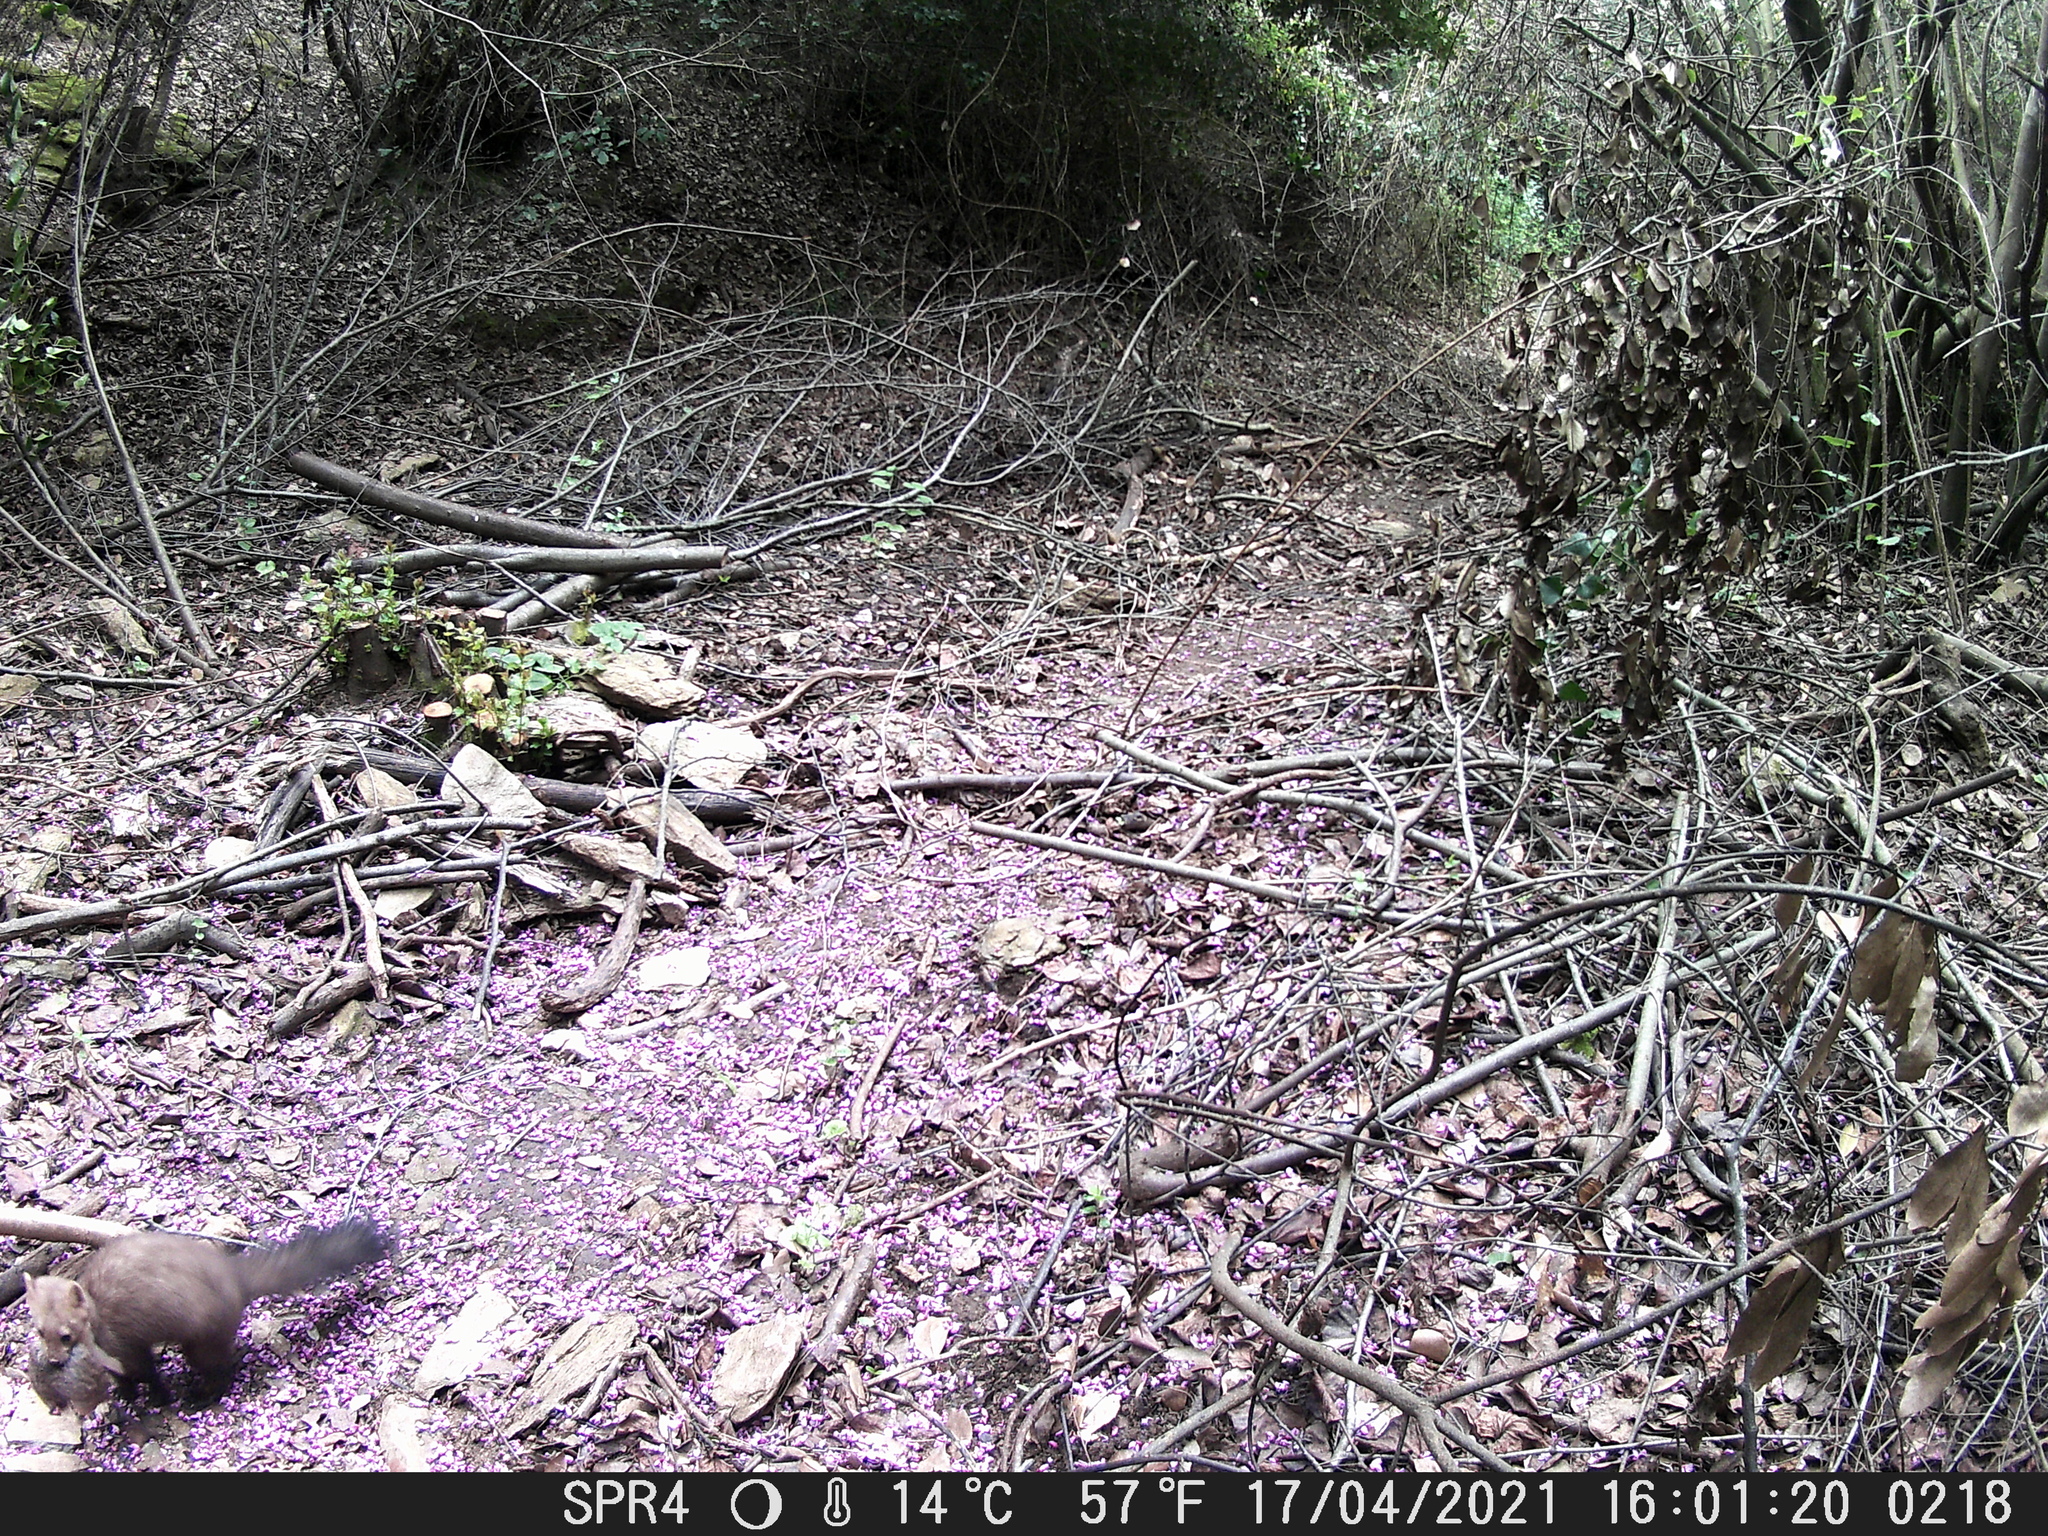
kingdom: Animalia
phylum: Chordata
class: Mammalia
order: Carnivora
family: Mustelidae
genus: Martes
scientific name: Martes foina
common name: Beech marten
